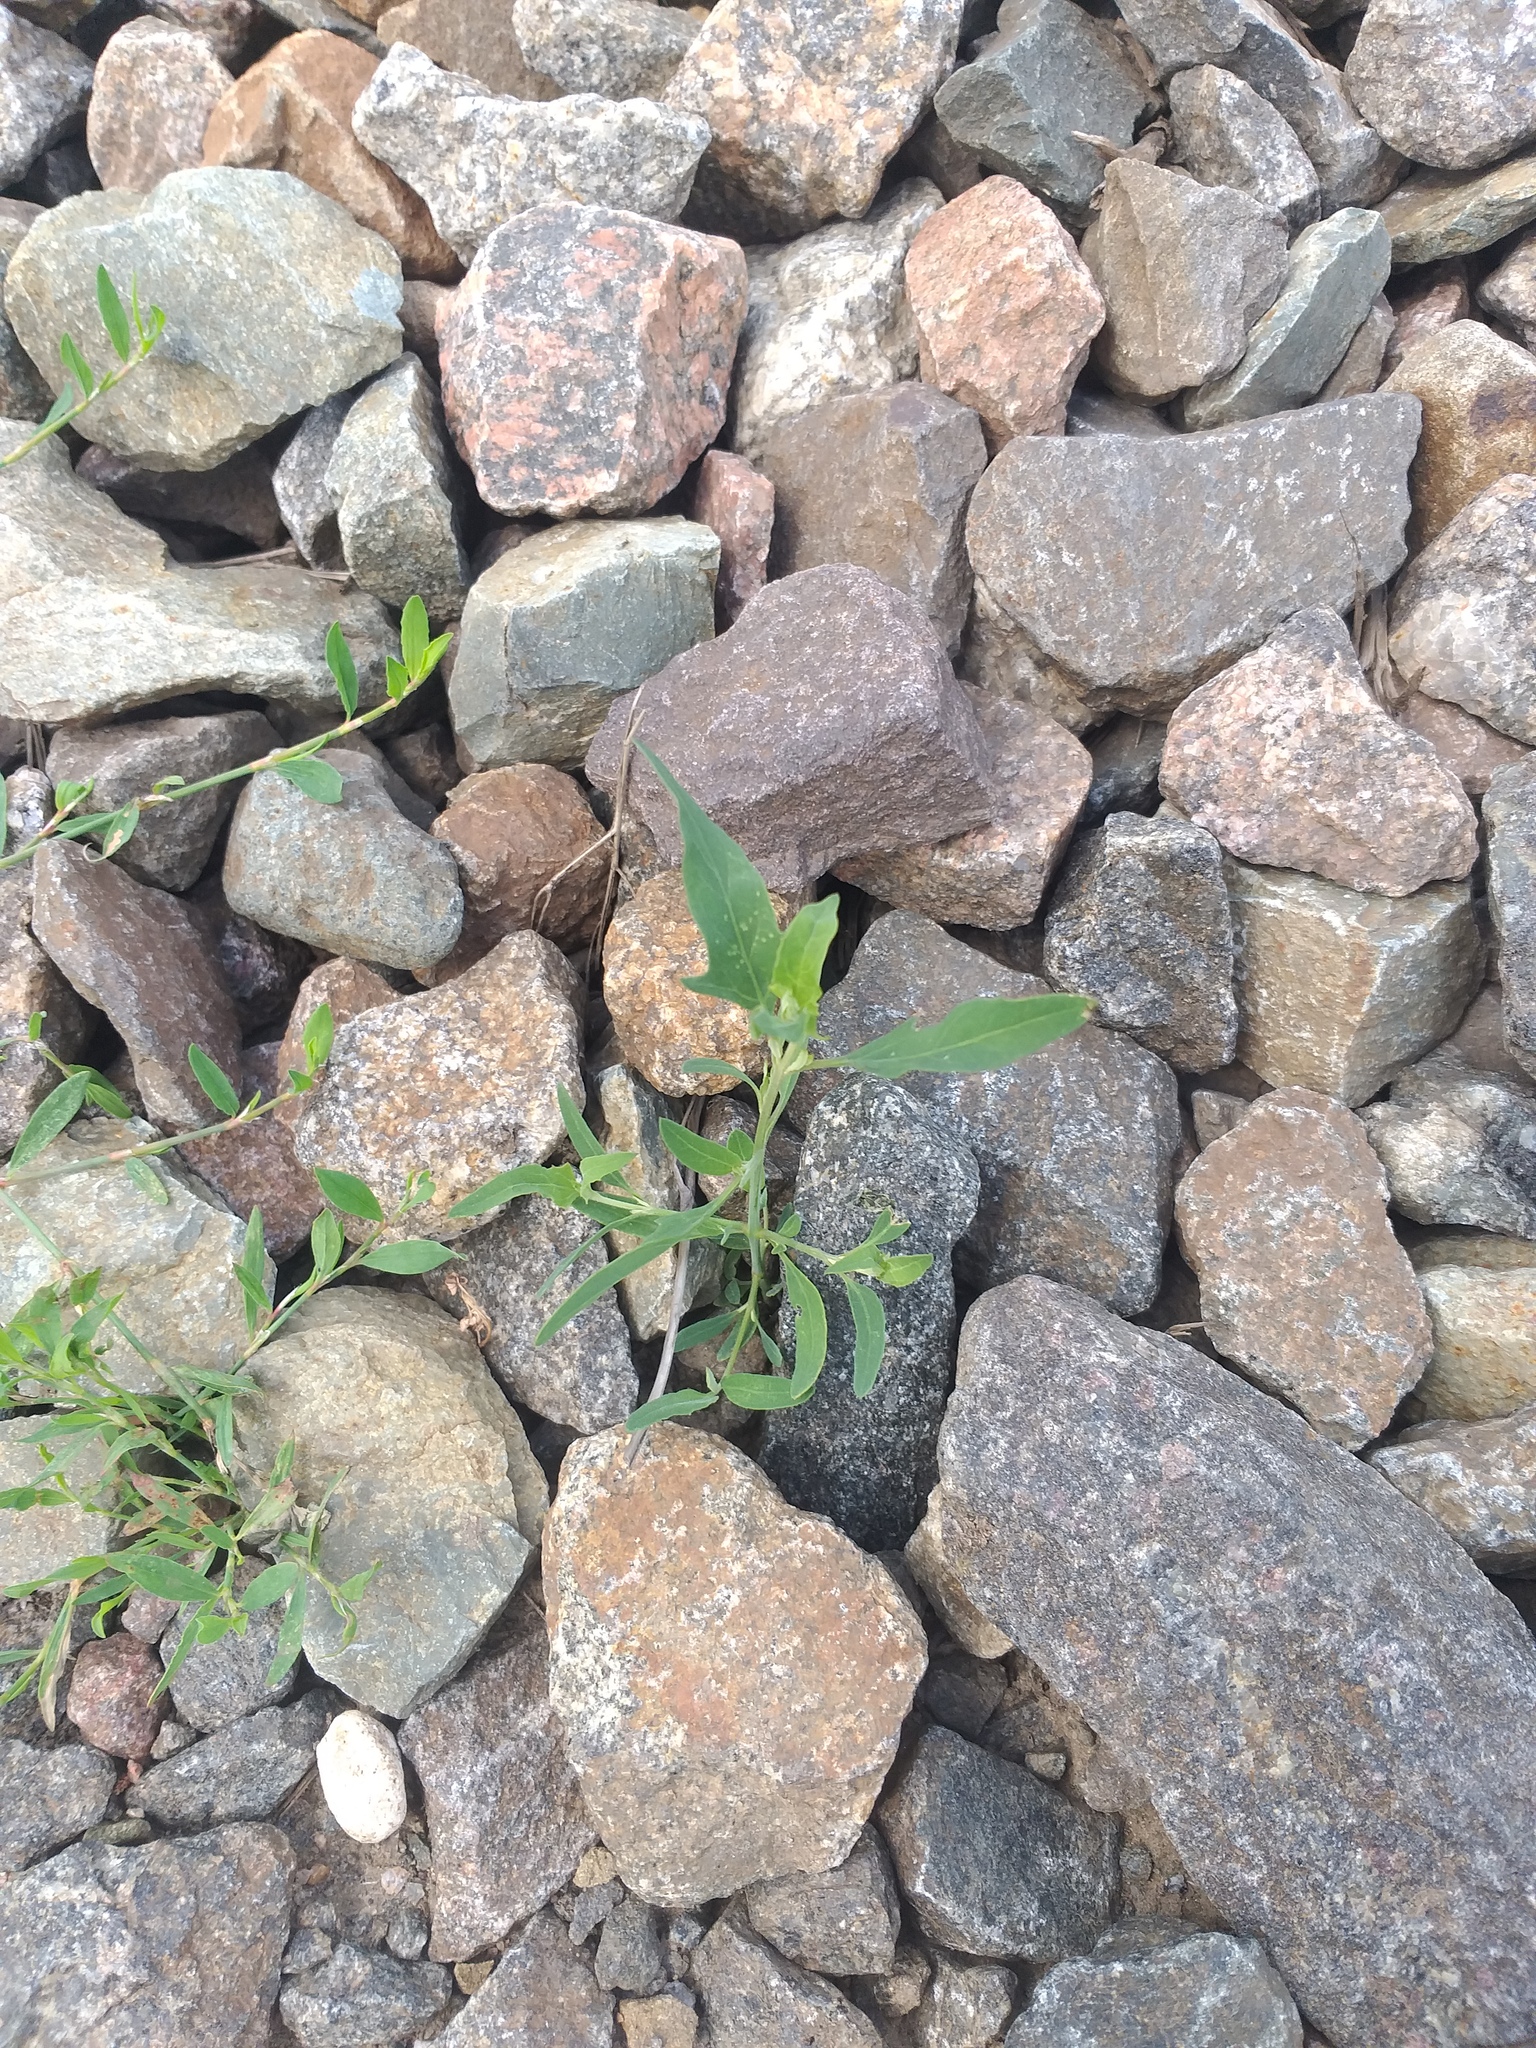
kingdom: Plantae
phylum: Tracheophyta
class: Magnoliopsida
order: Caryophyllales
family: Amaranthaceae
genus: Atriplex
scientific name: Atriplex patula
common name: Common orache
